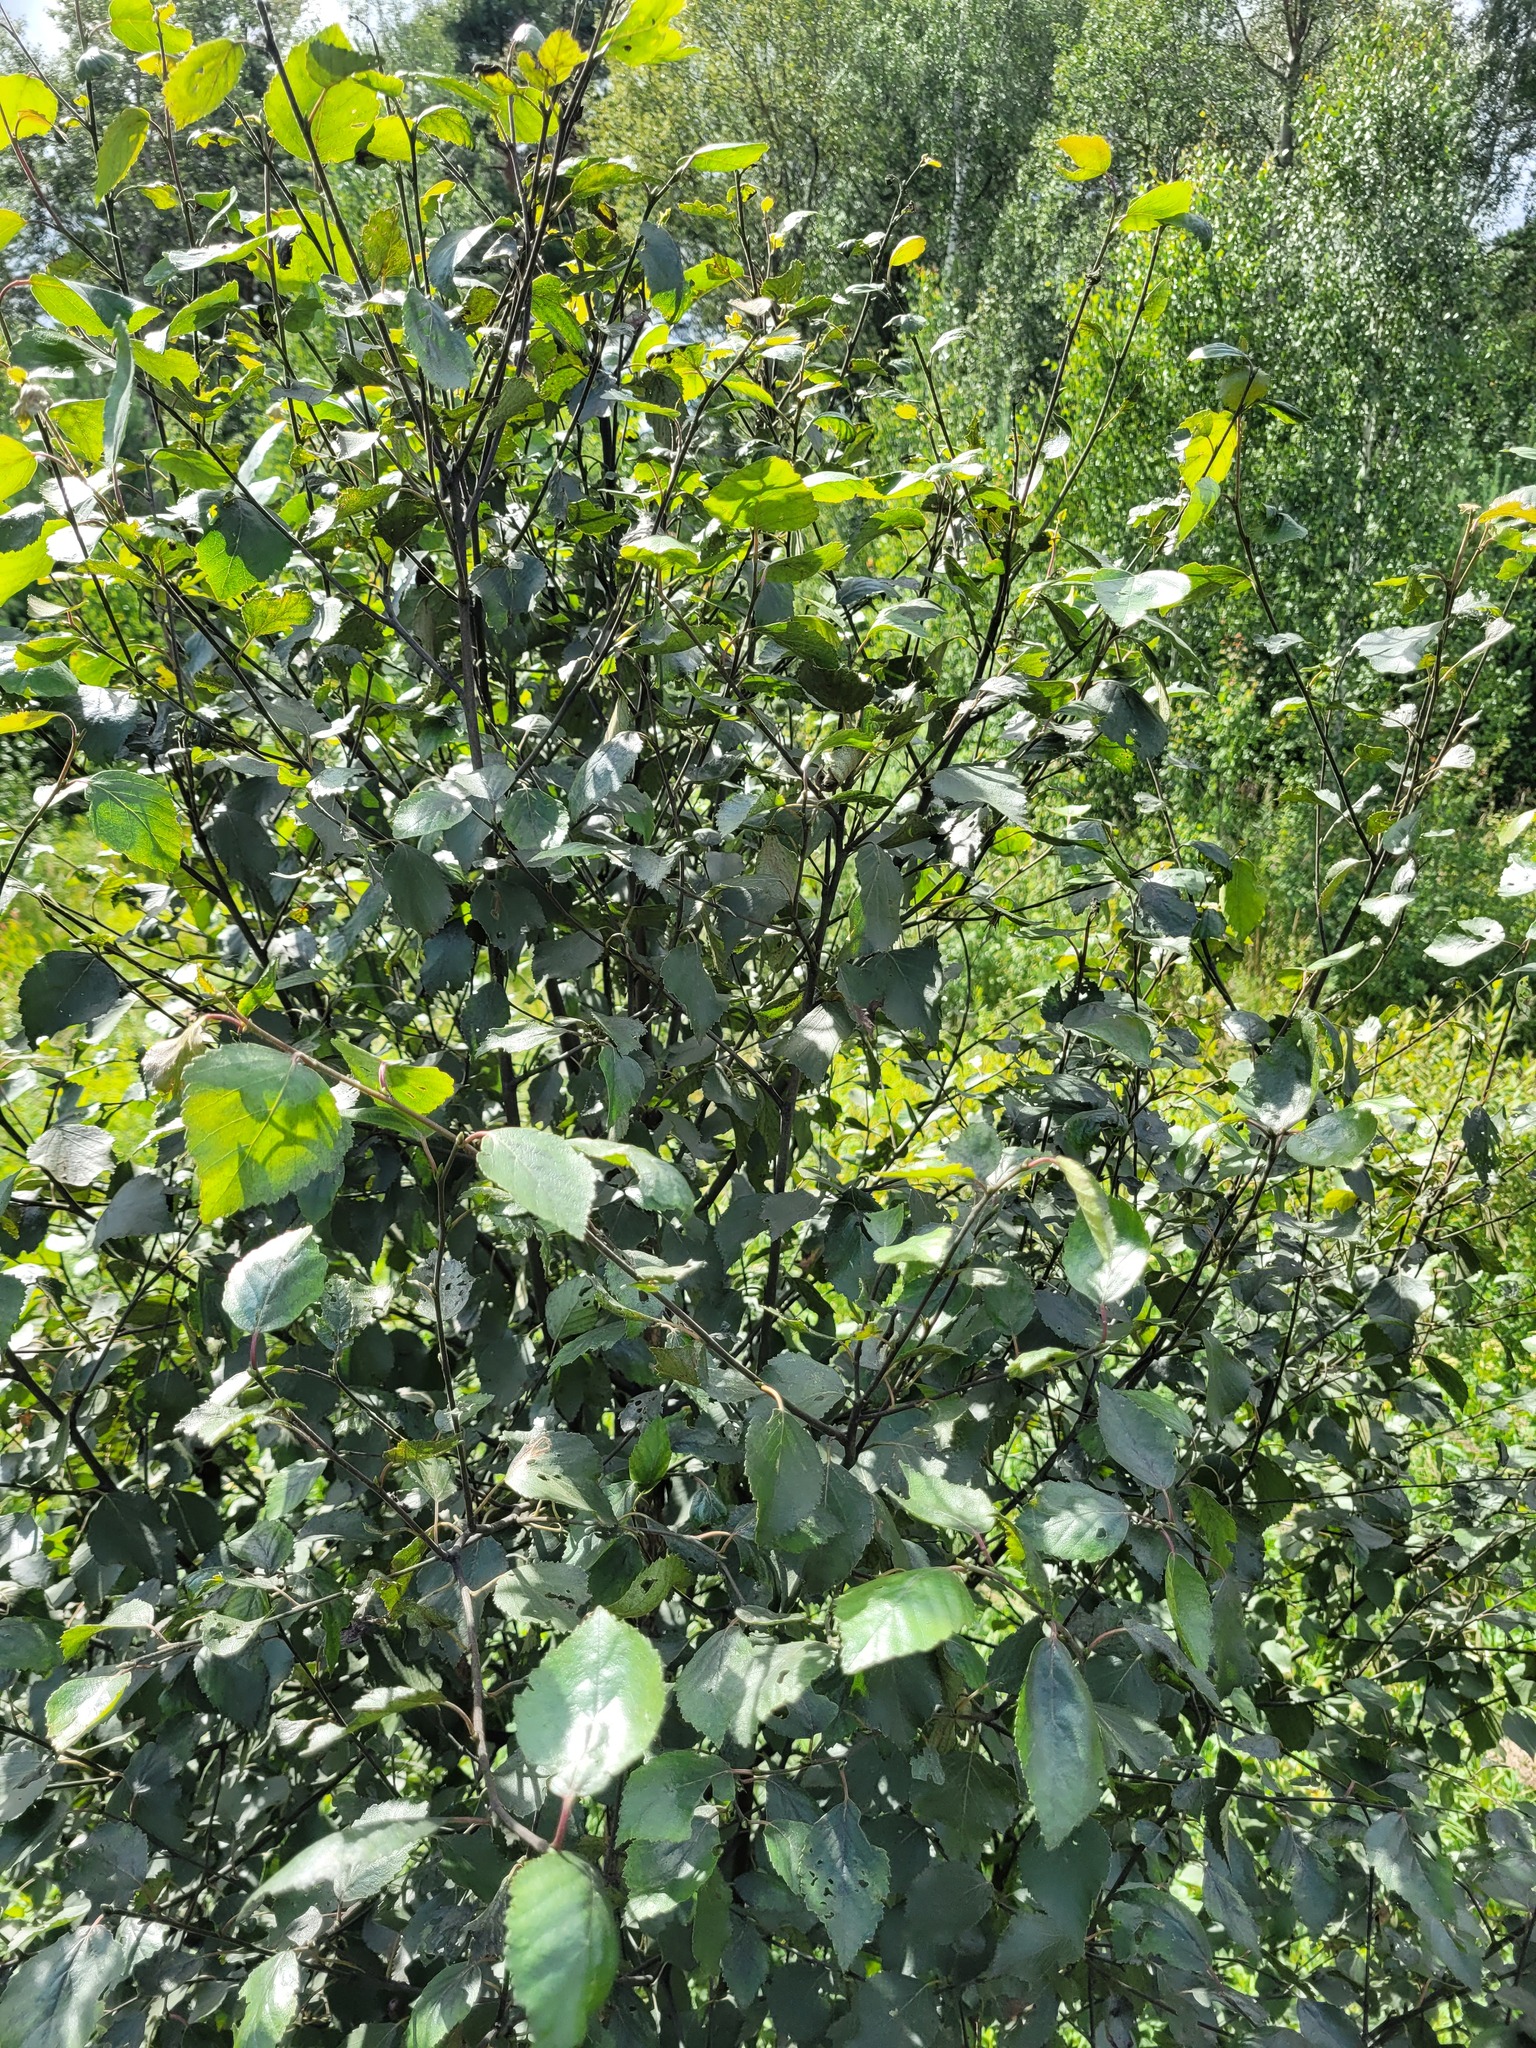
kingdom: Plantae
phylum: Tracheophyta
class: Magnoliopsida
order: Fagales
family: Betulaceae
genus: Betula
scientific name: Betula pubescens
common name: Downy birch
